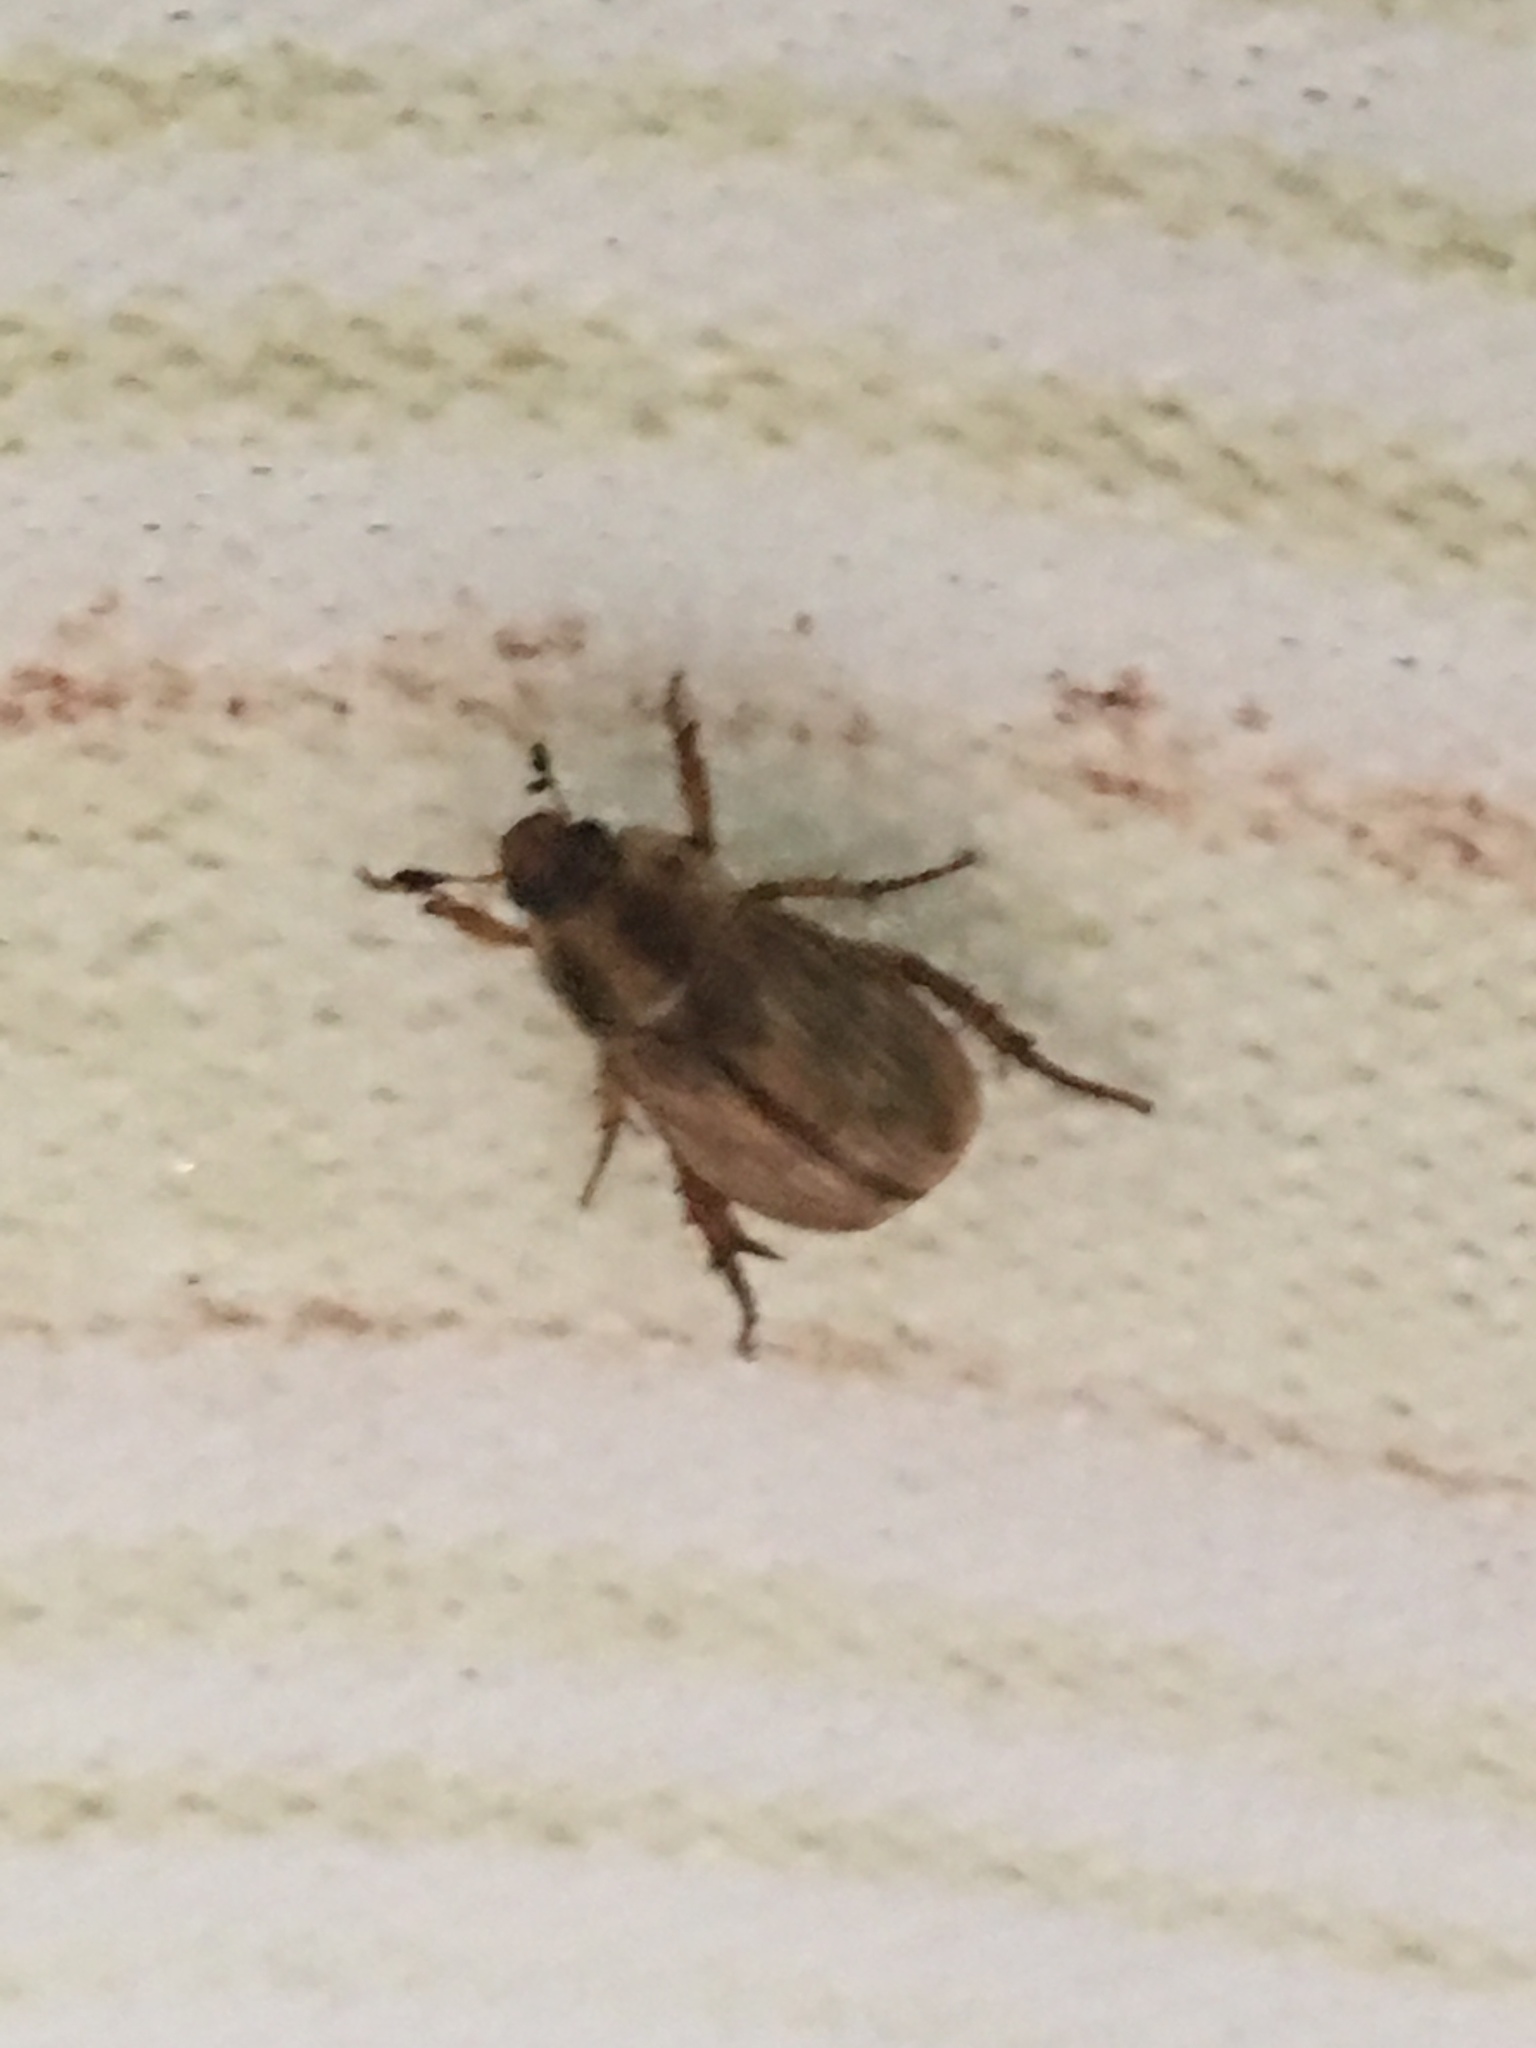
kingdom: Animalia
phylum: Arthropoda
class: Insecta
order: Coleoptera
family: Scarabaeidae
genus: Exomala
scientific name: Exomala orientalis
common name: Oriental beetle
